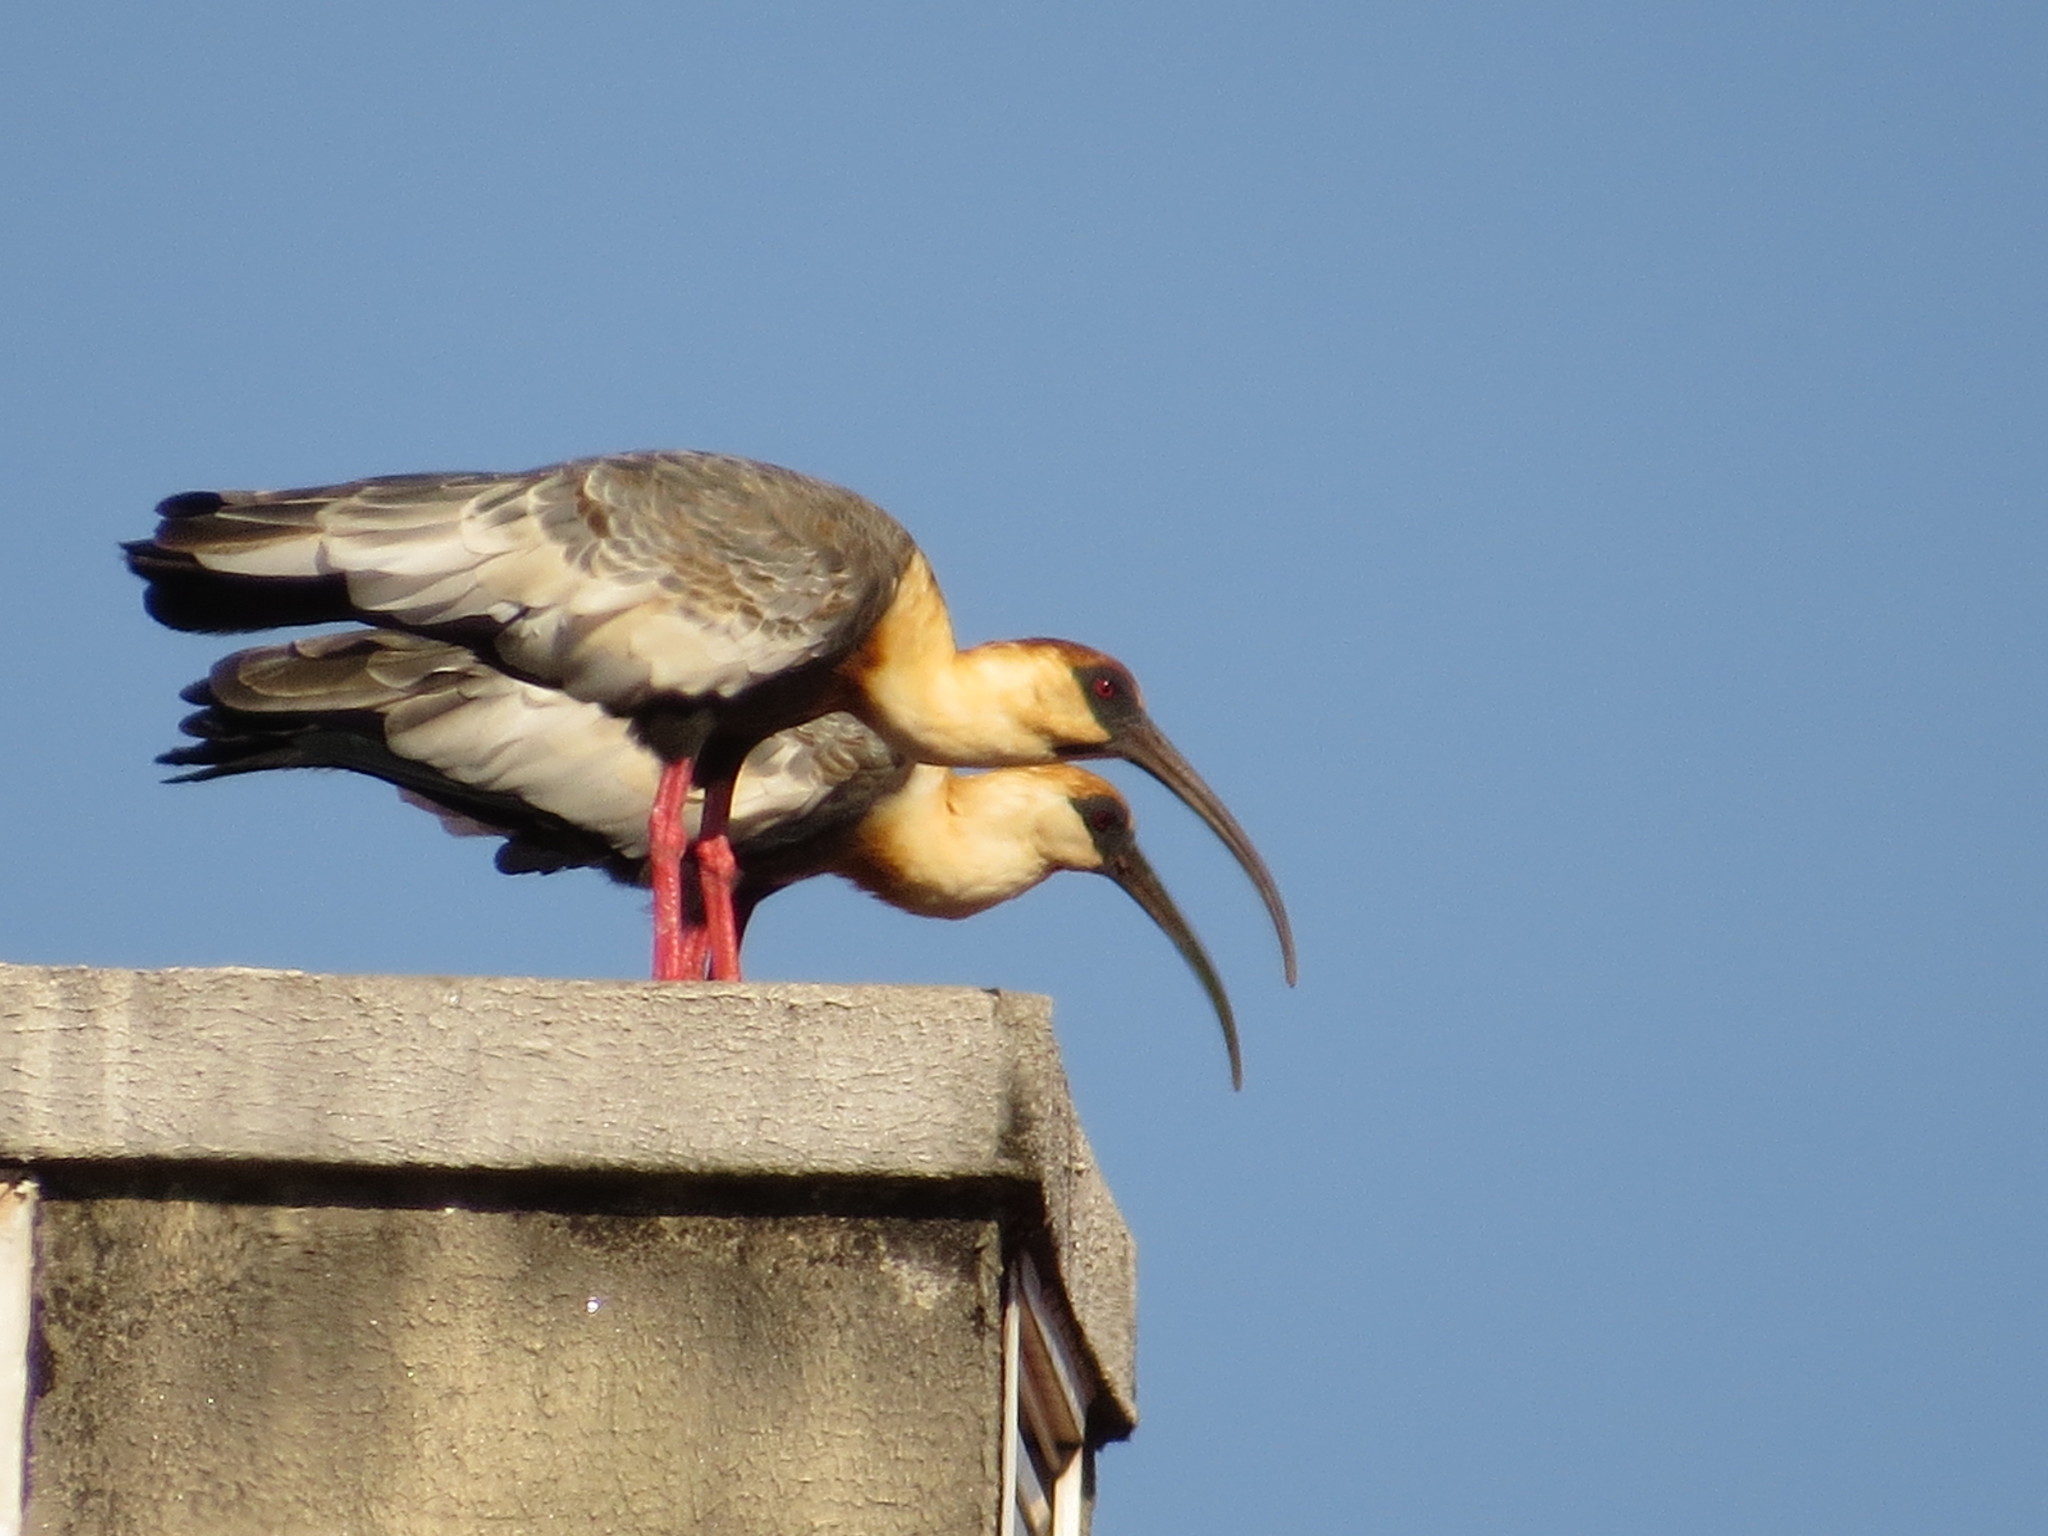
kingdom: Animalia
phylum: Chordata
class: Aves
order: Pelecaniformes
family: Threskiornithidae
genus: Theristicus
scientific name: Theristicus caudatus
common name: Buff-necked ibis
